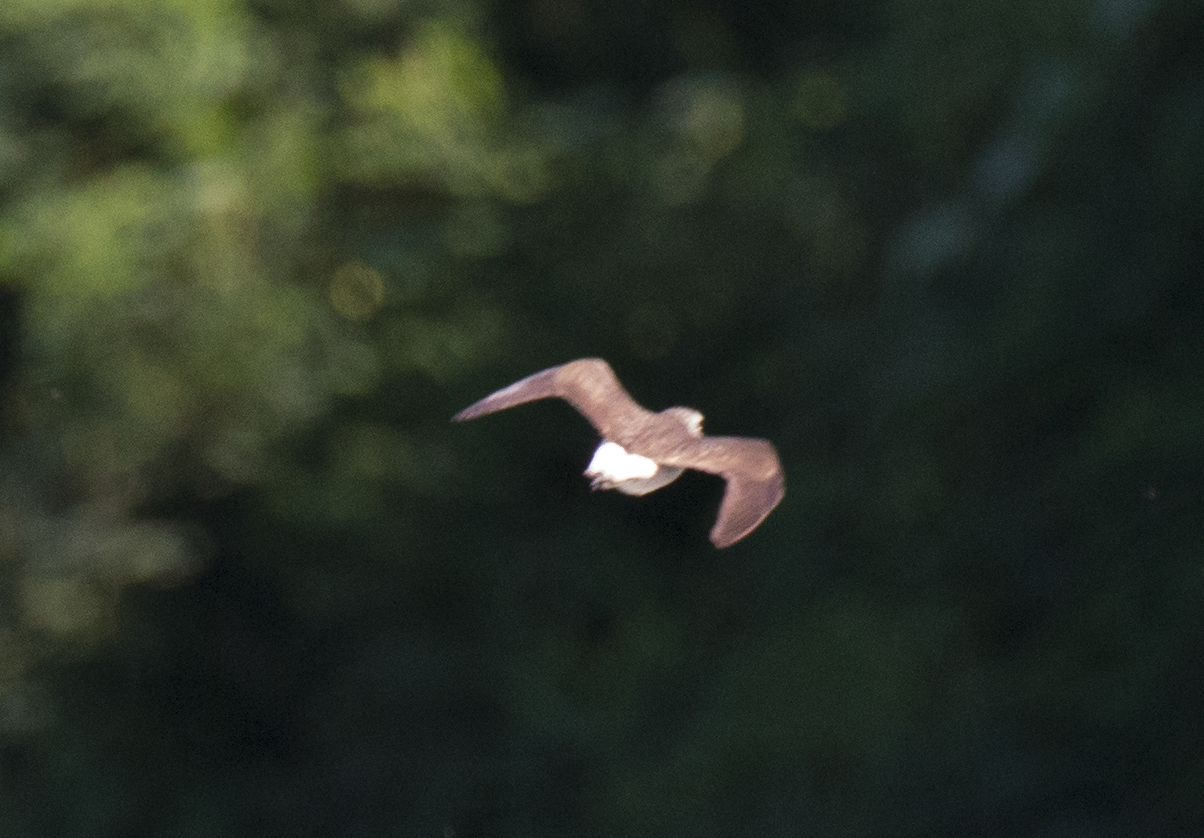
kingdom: Animalia
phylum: Chordata
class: Aves
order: Charadriiformes
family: Scolopacidae
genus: Tringa
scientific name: Tringa ochropus
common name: Green sandpiper
